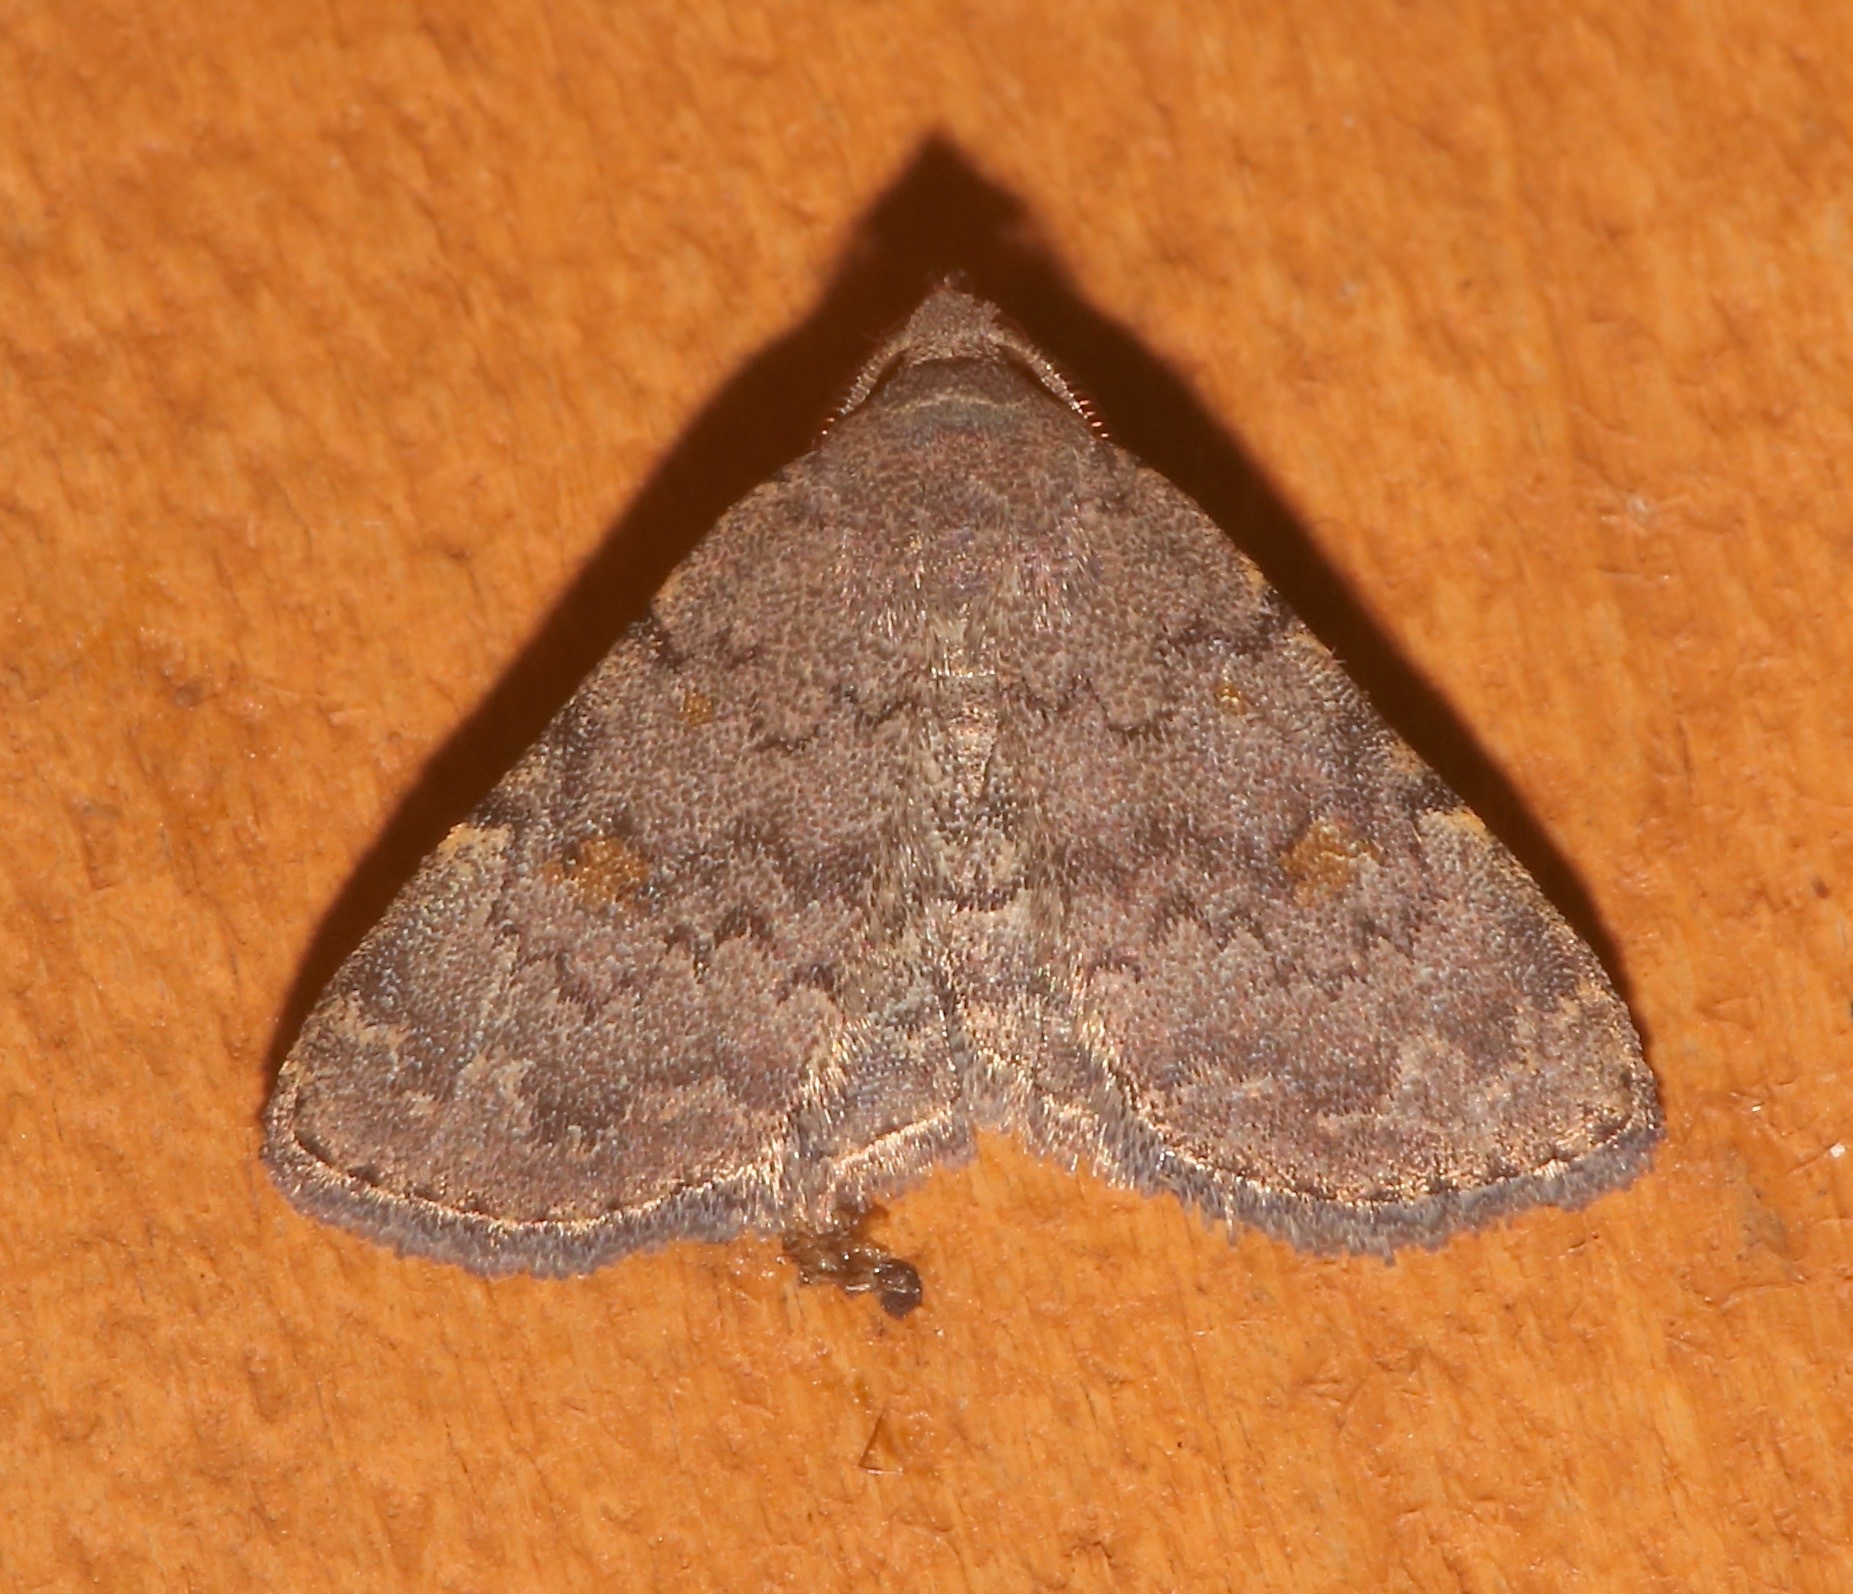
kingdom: Animalia
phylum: Arthropoda
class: Insecta
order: Lepidoptera
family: Erebidae
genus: Idia
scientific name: Idia aemula
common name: Common idia moth
